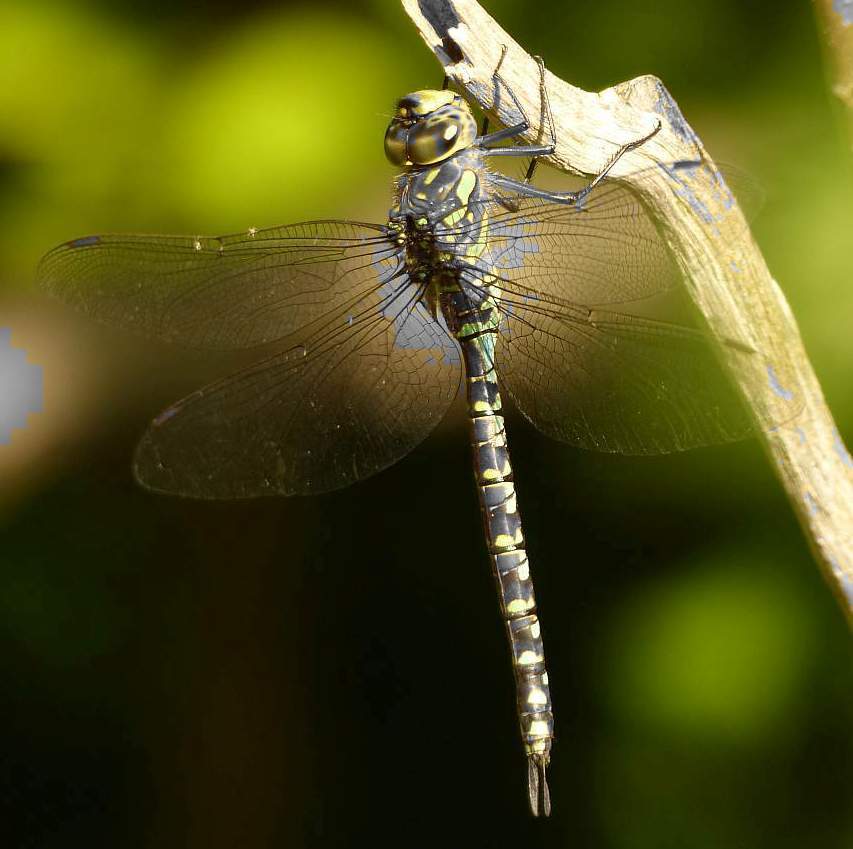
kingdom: Animalia
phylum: Arthropoda
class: Insecta
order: Odonata
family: Aeshnidae
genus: Aeshna
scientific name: Aeshna canadensis
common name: Canada darner
